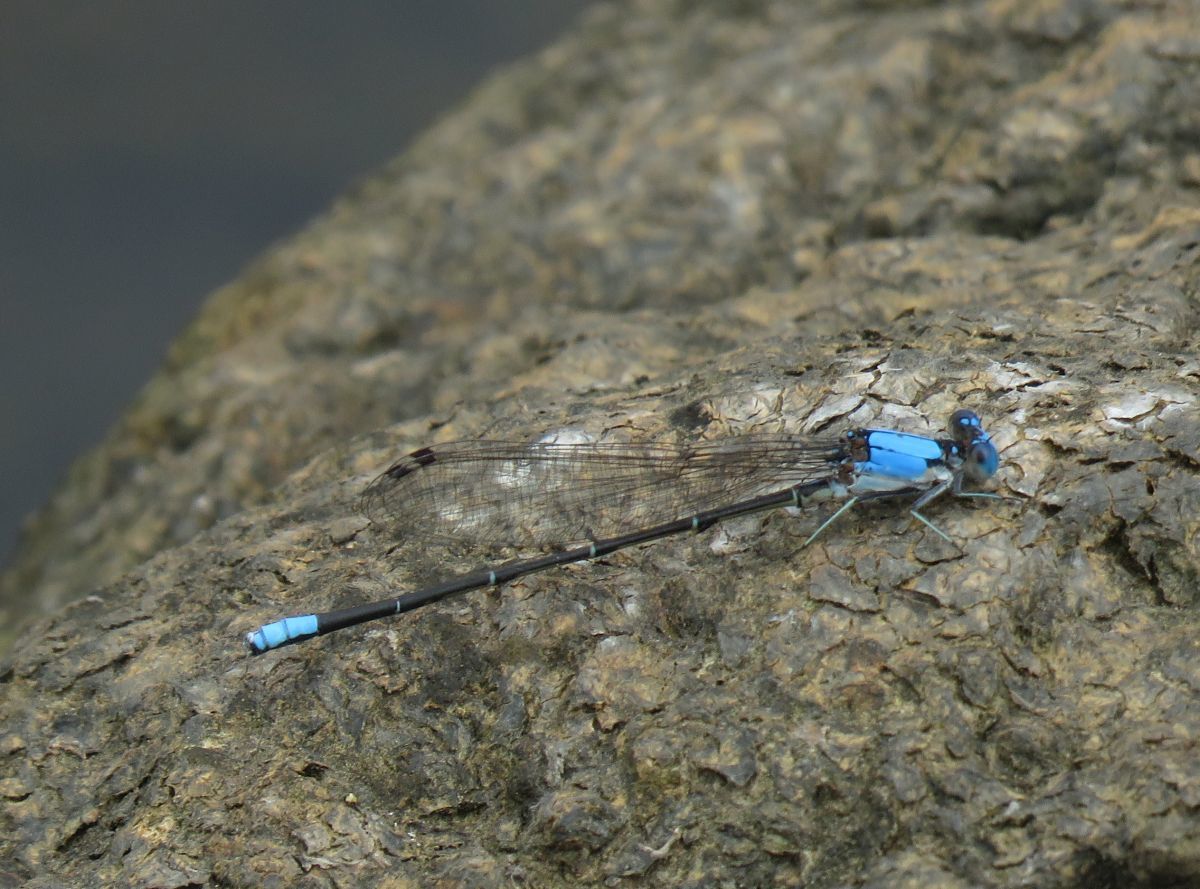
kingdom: Animalia
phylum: Arthropoda
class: Insecta
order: Odonata
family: Coenagrionidae
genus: Argia
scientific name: Argia apicalis
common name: Blue-fronted dancer
